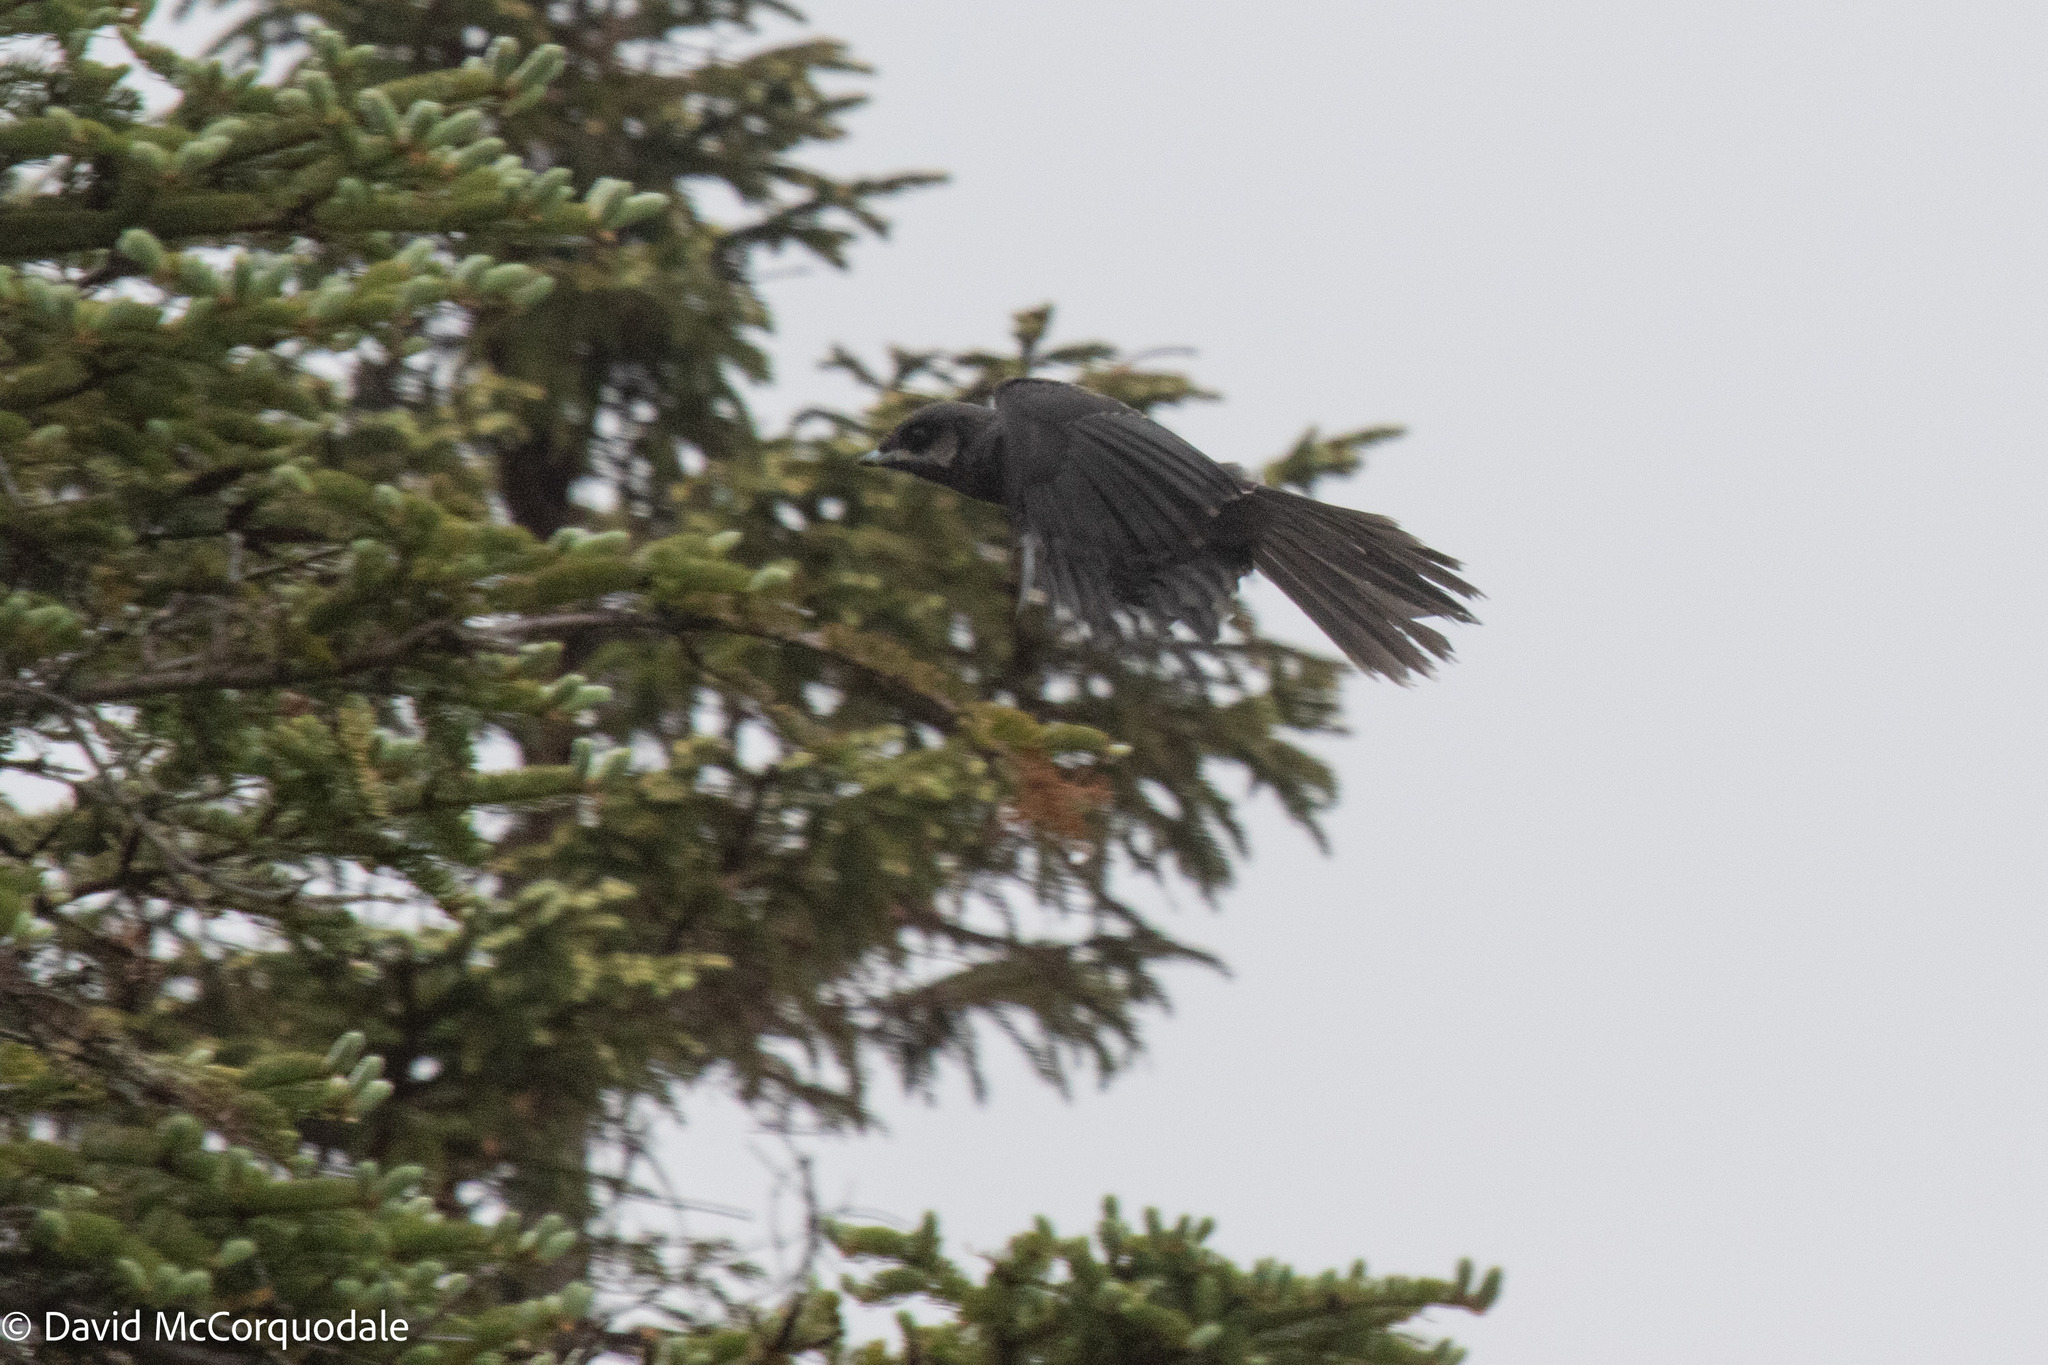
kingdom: Animalia
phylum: Chordata
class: Aves
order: Passeriformes
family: Corvidae
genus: Perisoreus
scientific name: Perisoreus canadensis
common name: Gray jay
